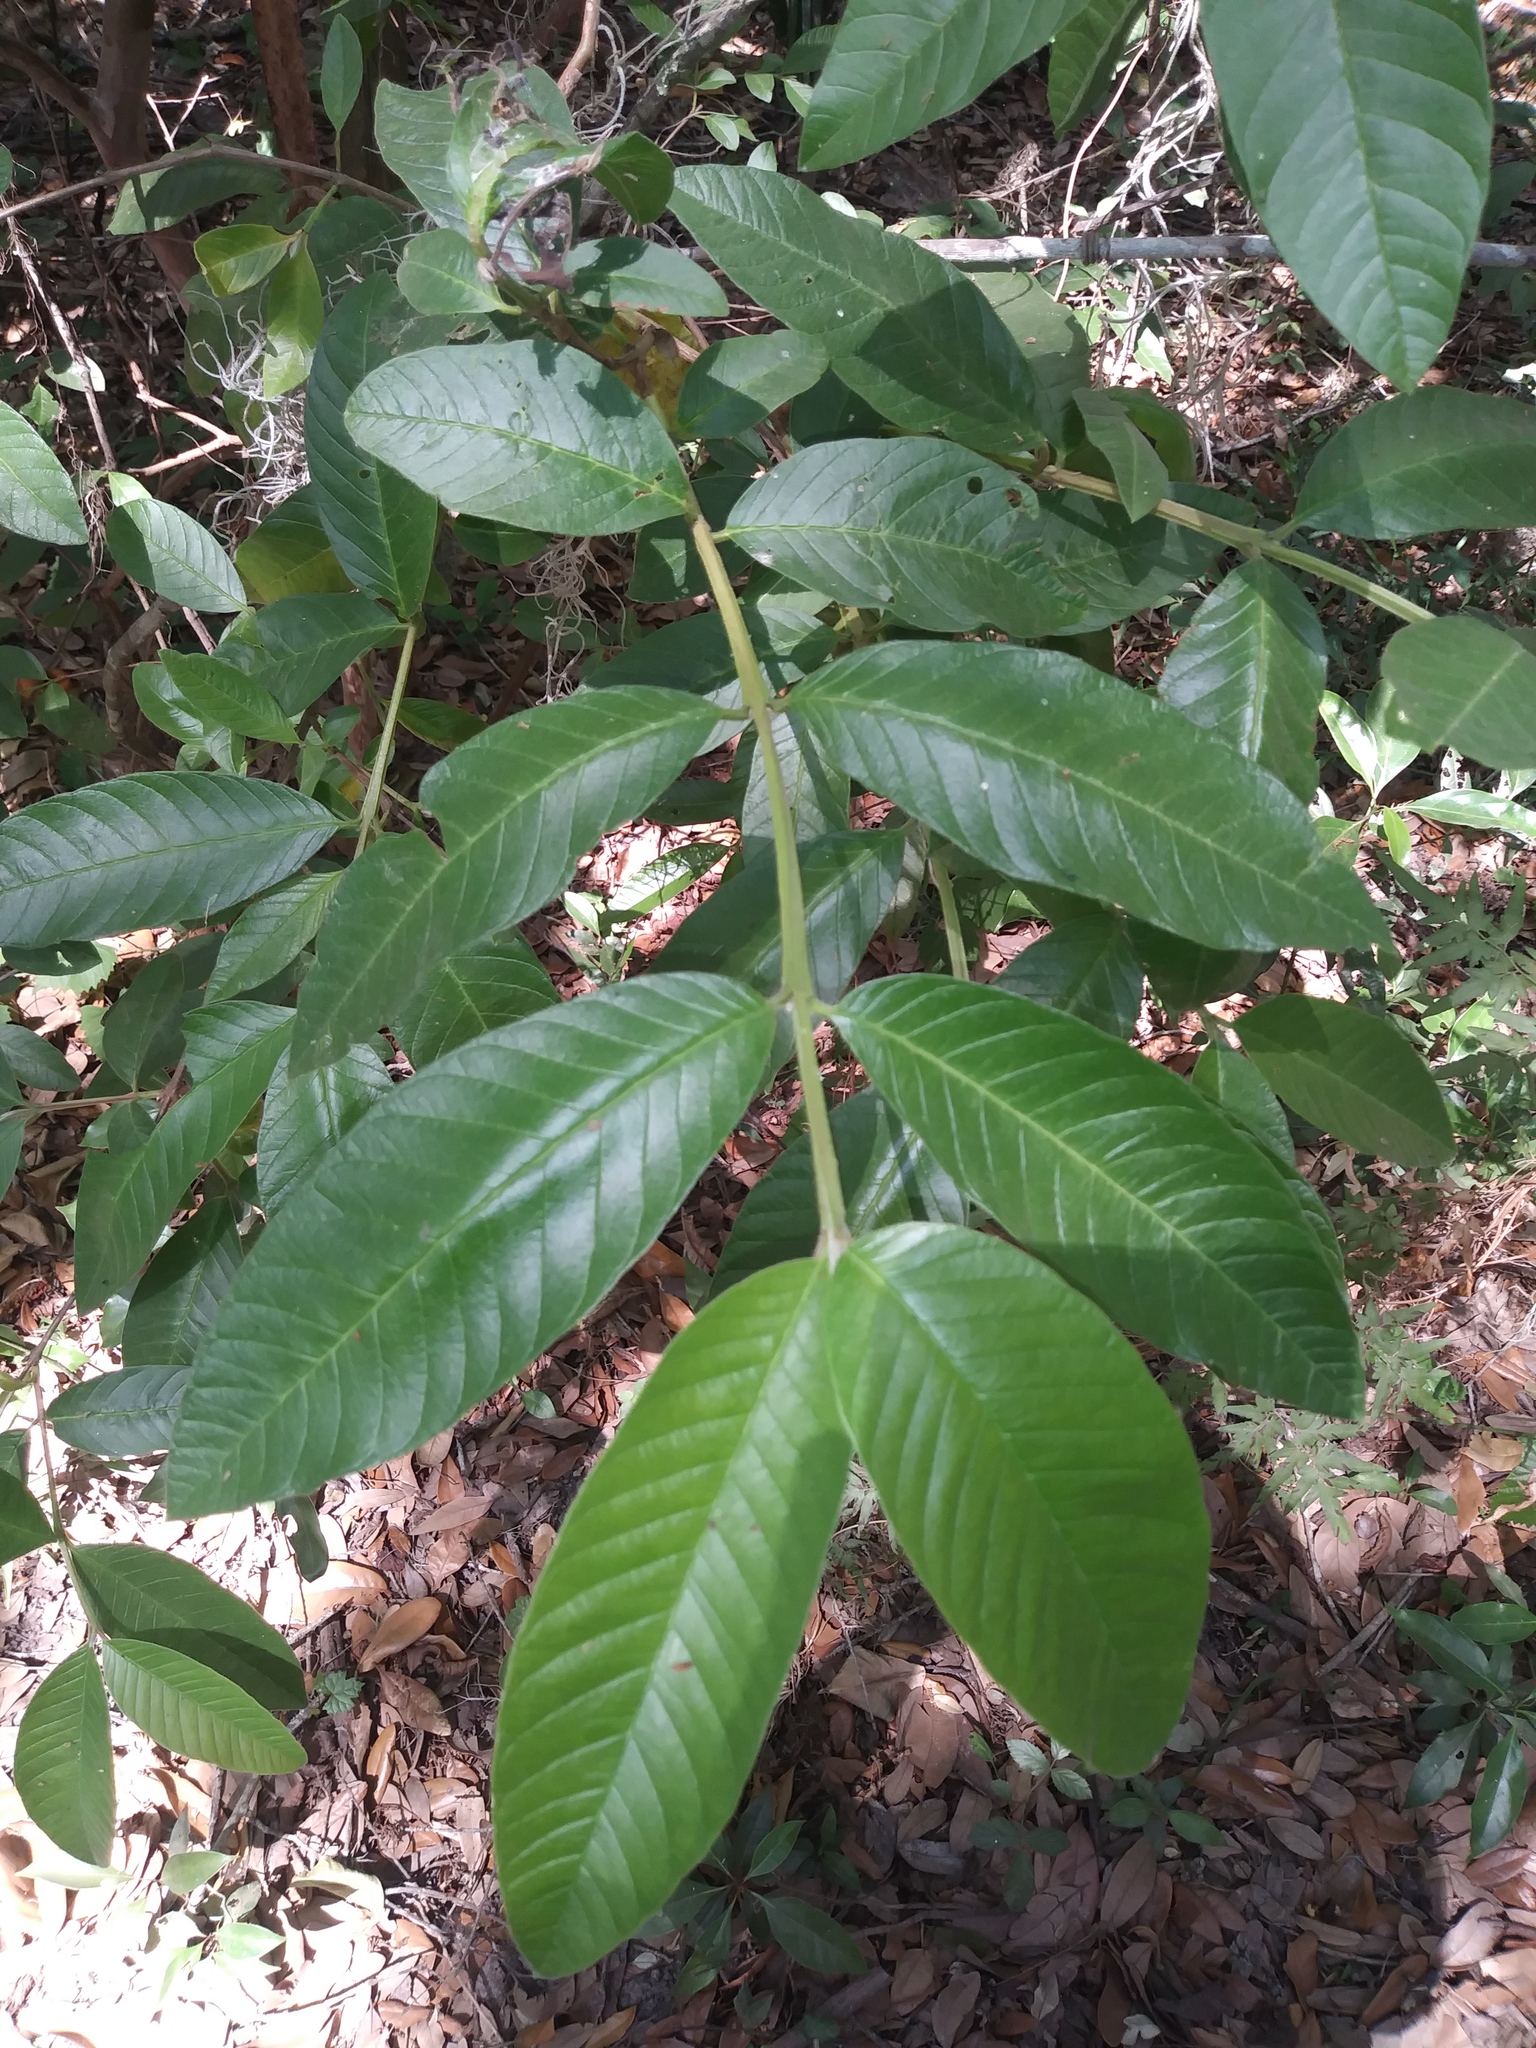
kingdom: Plantae
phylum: Tracheophyta
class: Magnoliopsida
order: Myrtales
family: Myrtaceae
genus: Psidium
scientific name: Psidium guajava
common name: Guava
